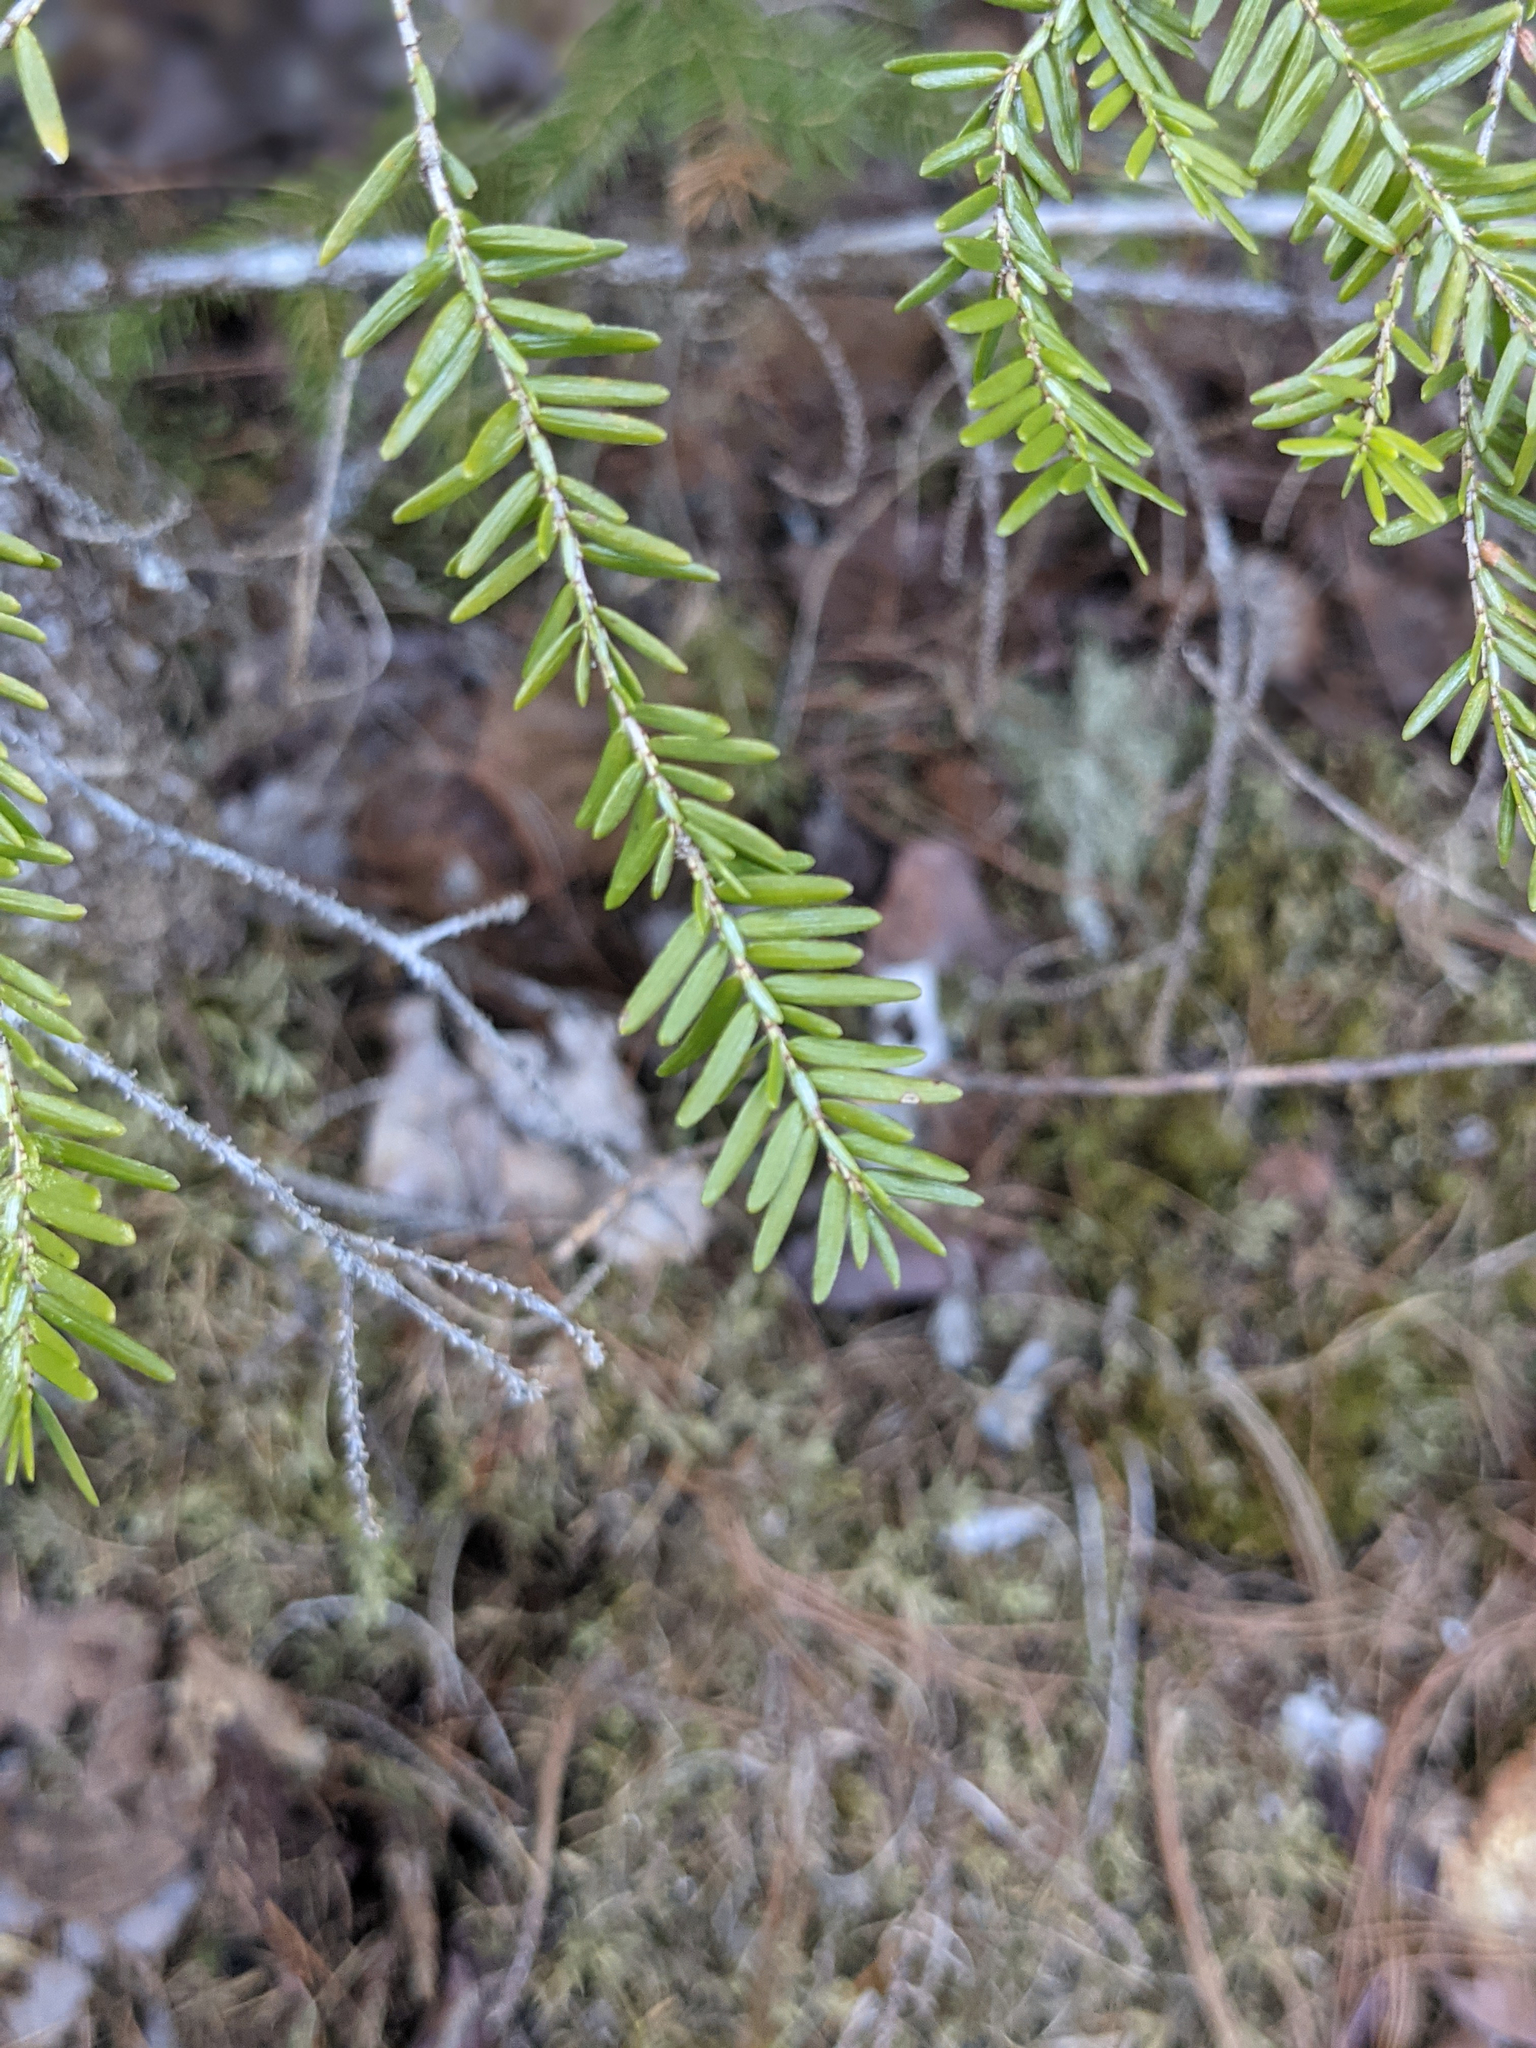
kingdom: Plantae
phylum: Tracheophyta
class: Pinopsida
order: Pinales
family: Pinaceae
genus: Tsuga
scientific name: Tsuga canadensis
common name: Eastern hemlock
